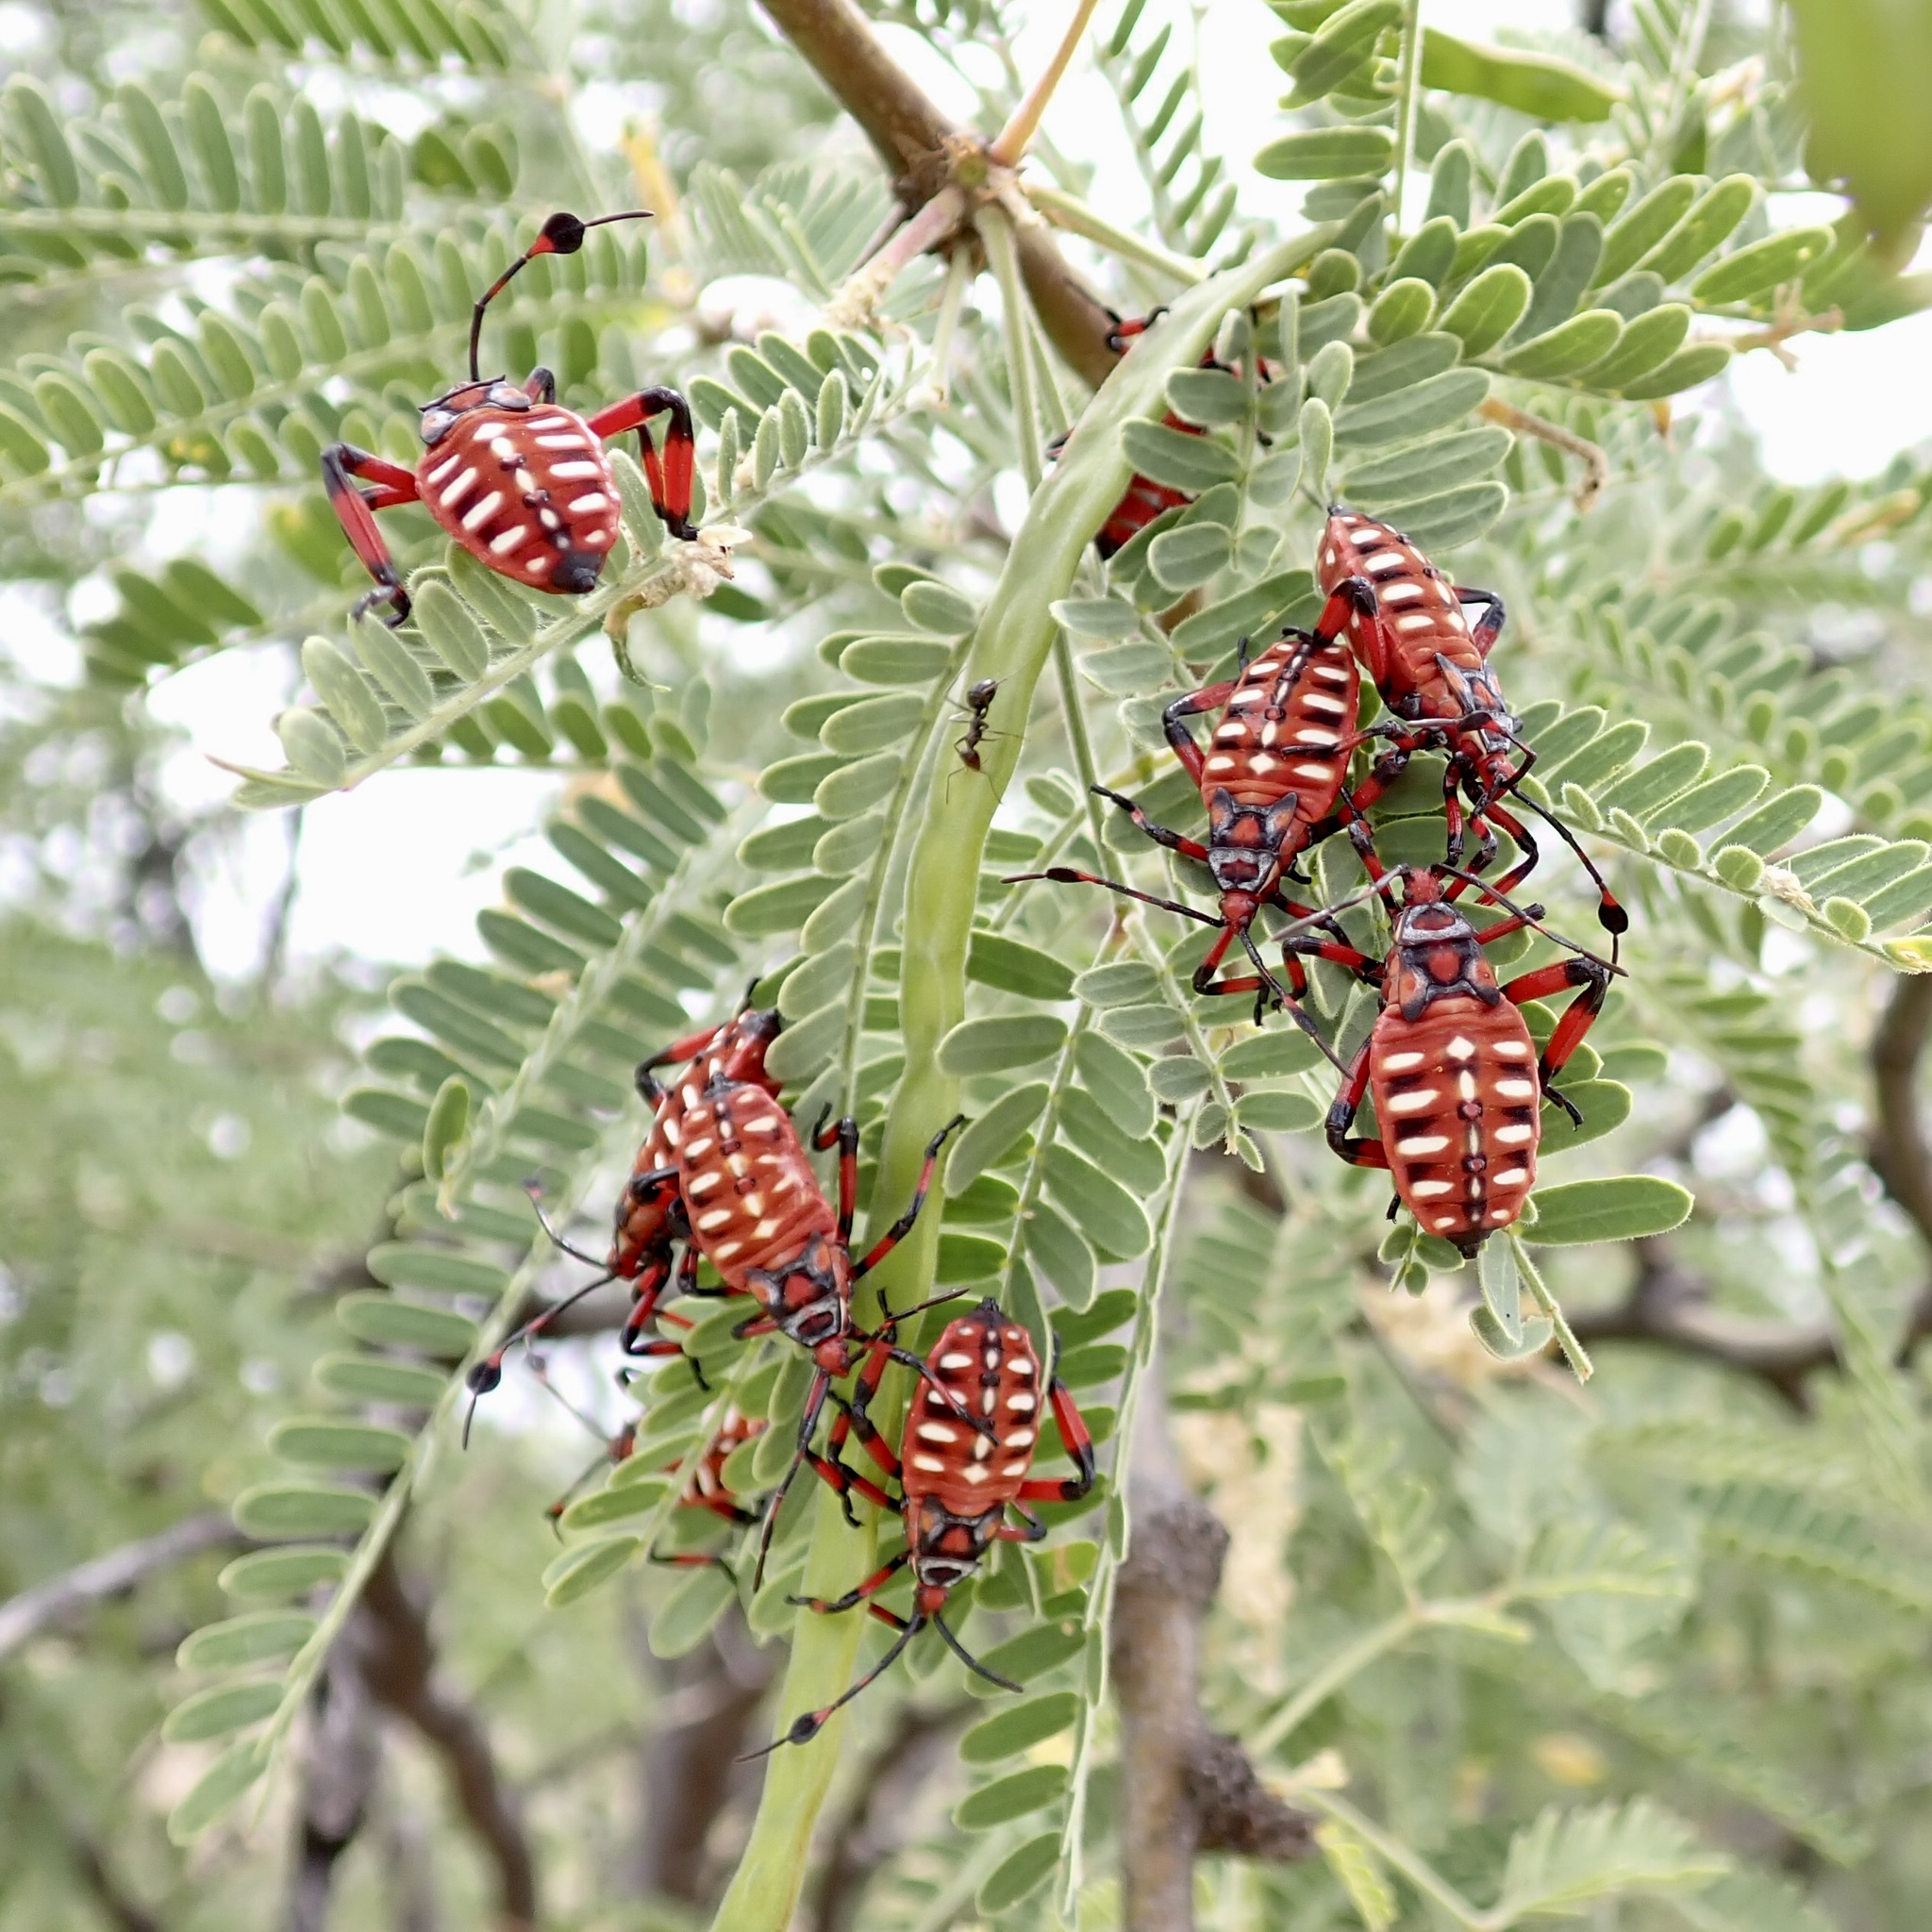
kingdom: Animalia
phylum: Arthropoda
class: Insecta
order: Hemiptera
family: Coreidae
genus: Thasus
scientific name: Thasus neocalifornicus
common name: Giant mesquite bug
